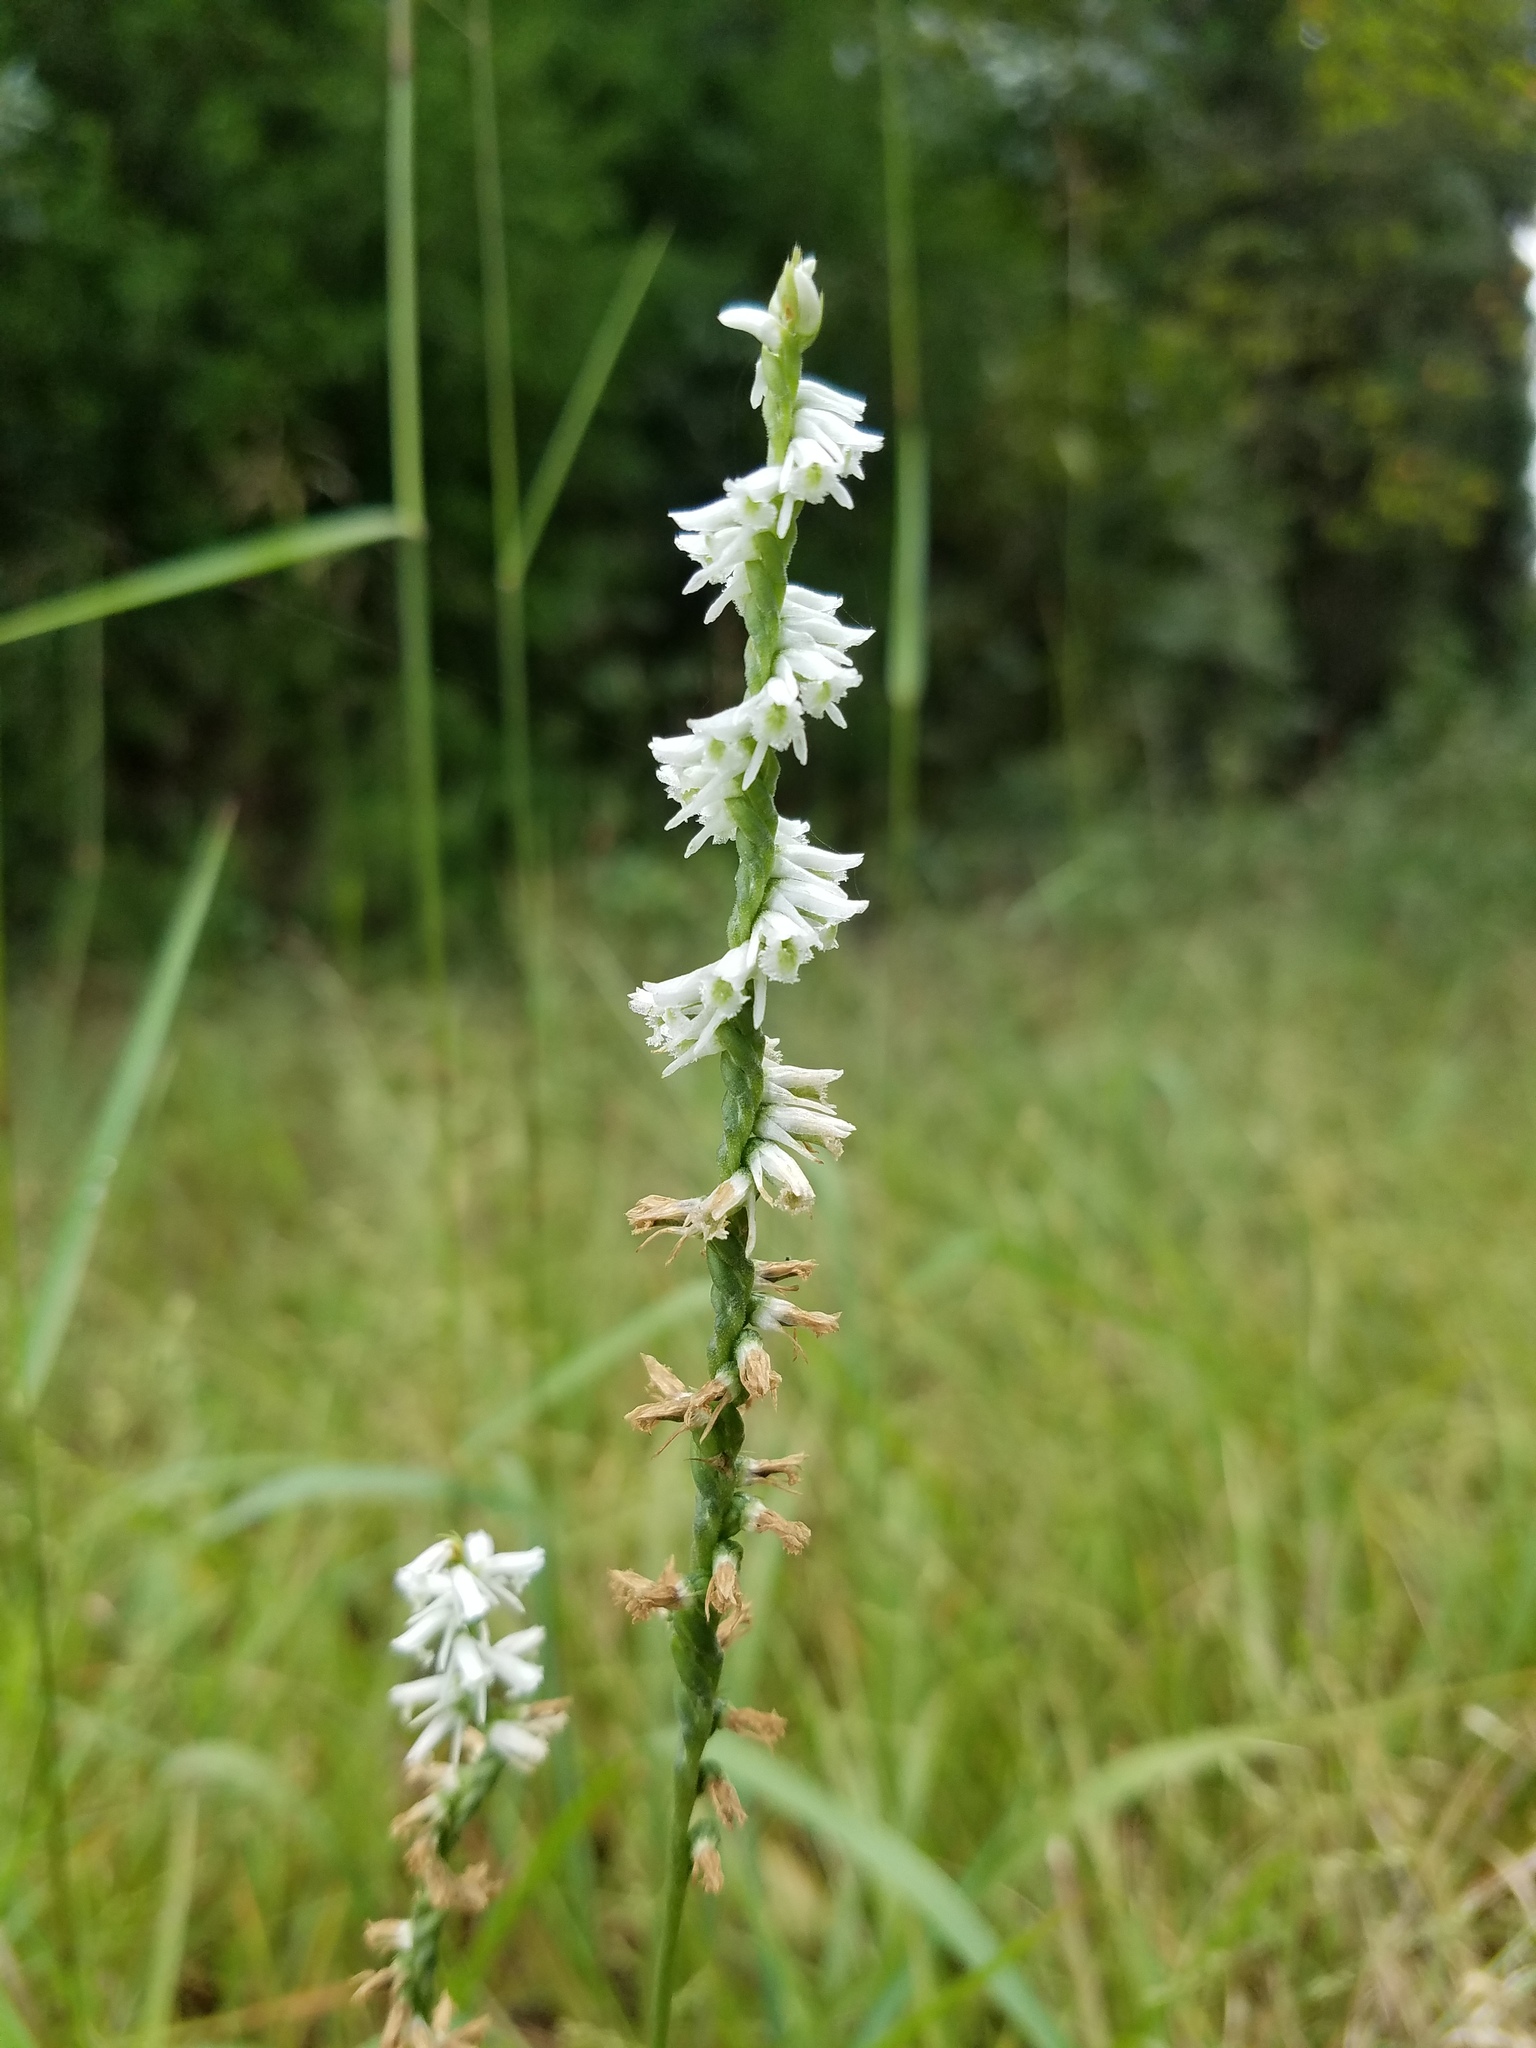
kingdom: Plantae
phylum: Tracheophyta
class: Liliopsida
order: Asparagales
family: Orchidaceae
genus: Spiranthes
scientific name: Spiranthes lacera
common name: Northern slender ladies'-tresses
